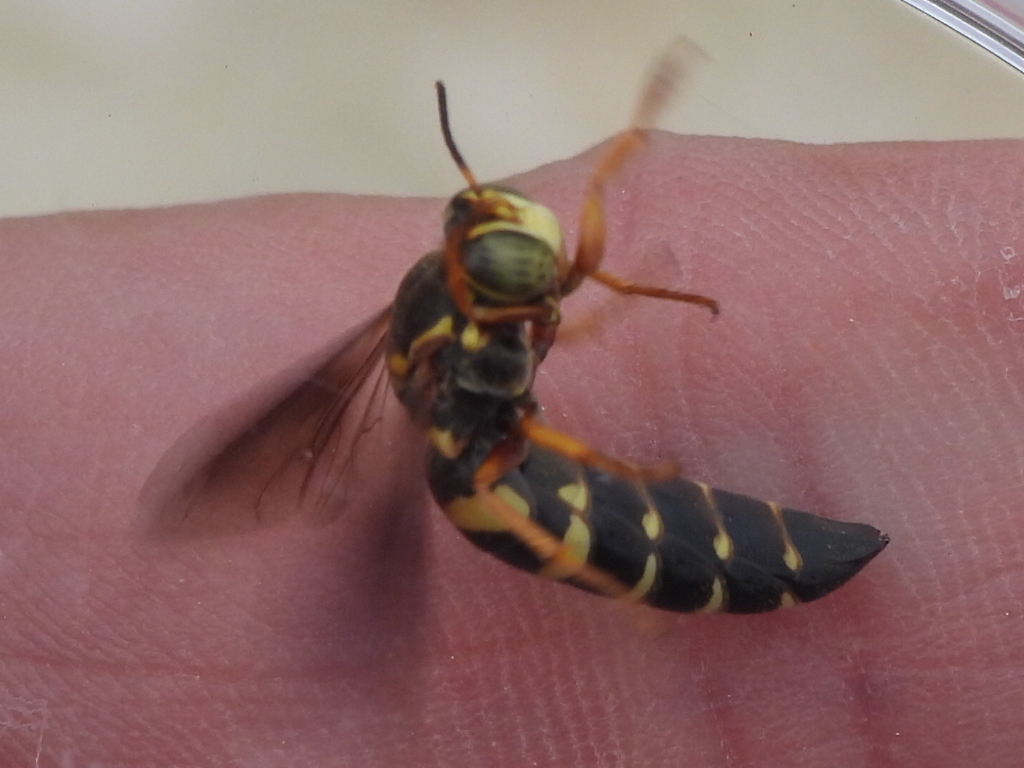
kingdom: Animalia
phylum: Arthropoda
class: Insecta
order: Hymenoptera
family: Crabronidae
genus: Bicyrtes
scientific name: Bicyrtes insidiatrix
